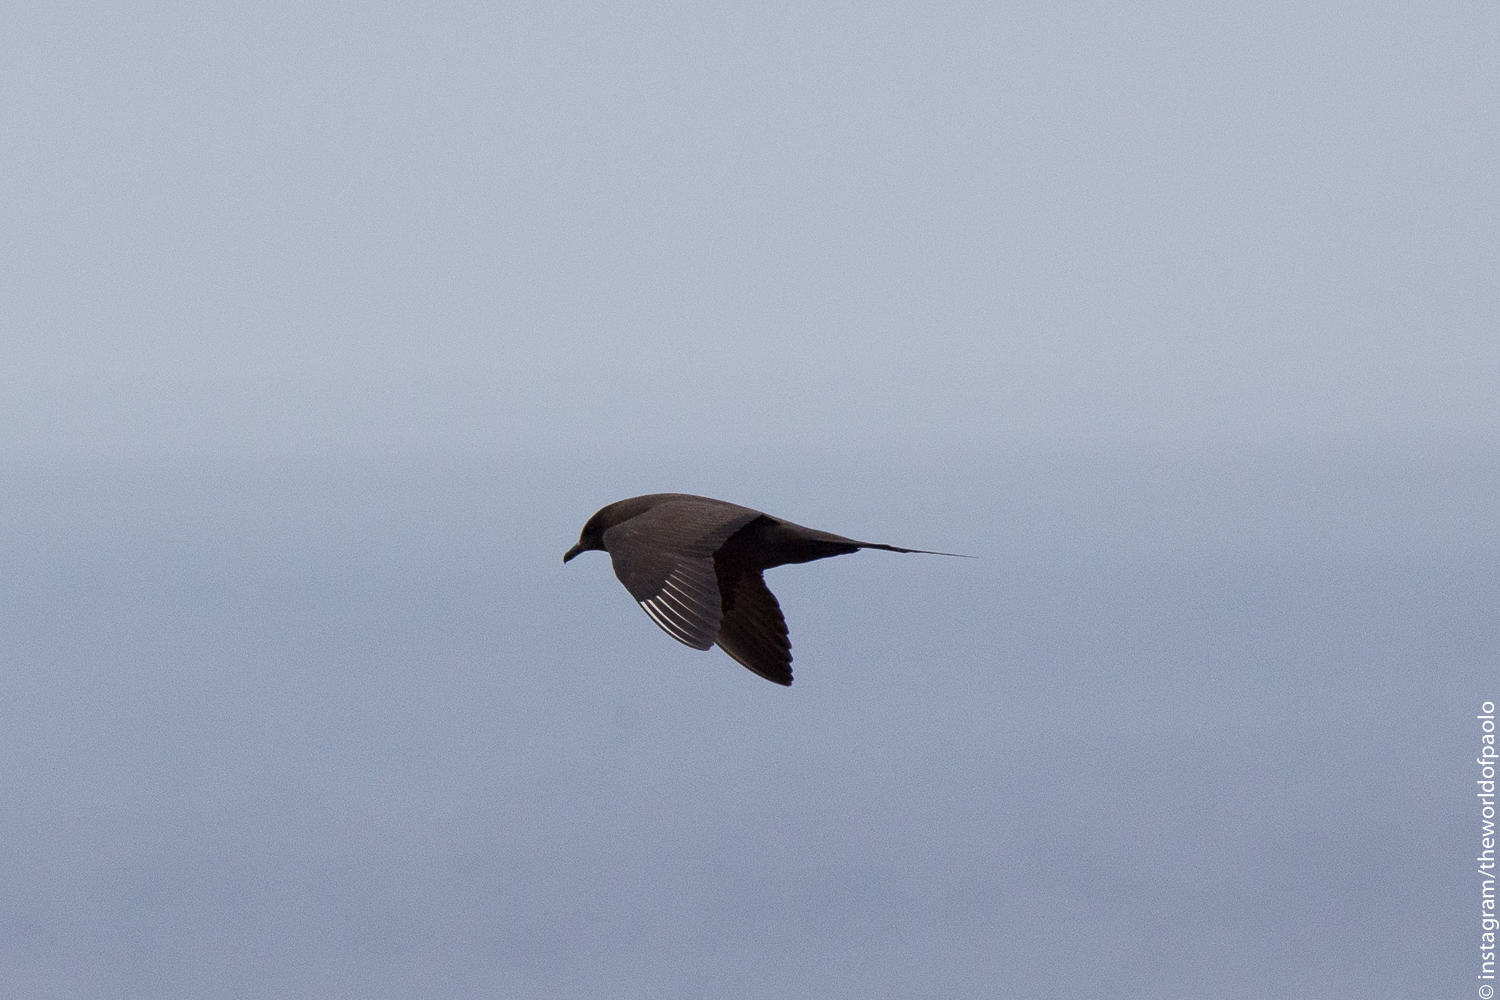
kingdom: Animalia
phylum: Chordata
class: Aves
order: Charadriiformes
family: Stercorariidae
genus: Stercorarius
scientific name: Stercorarius parasiticus
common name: Parasitic jaeger
